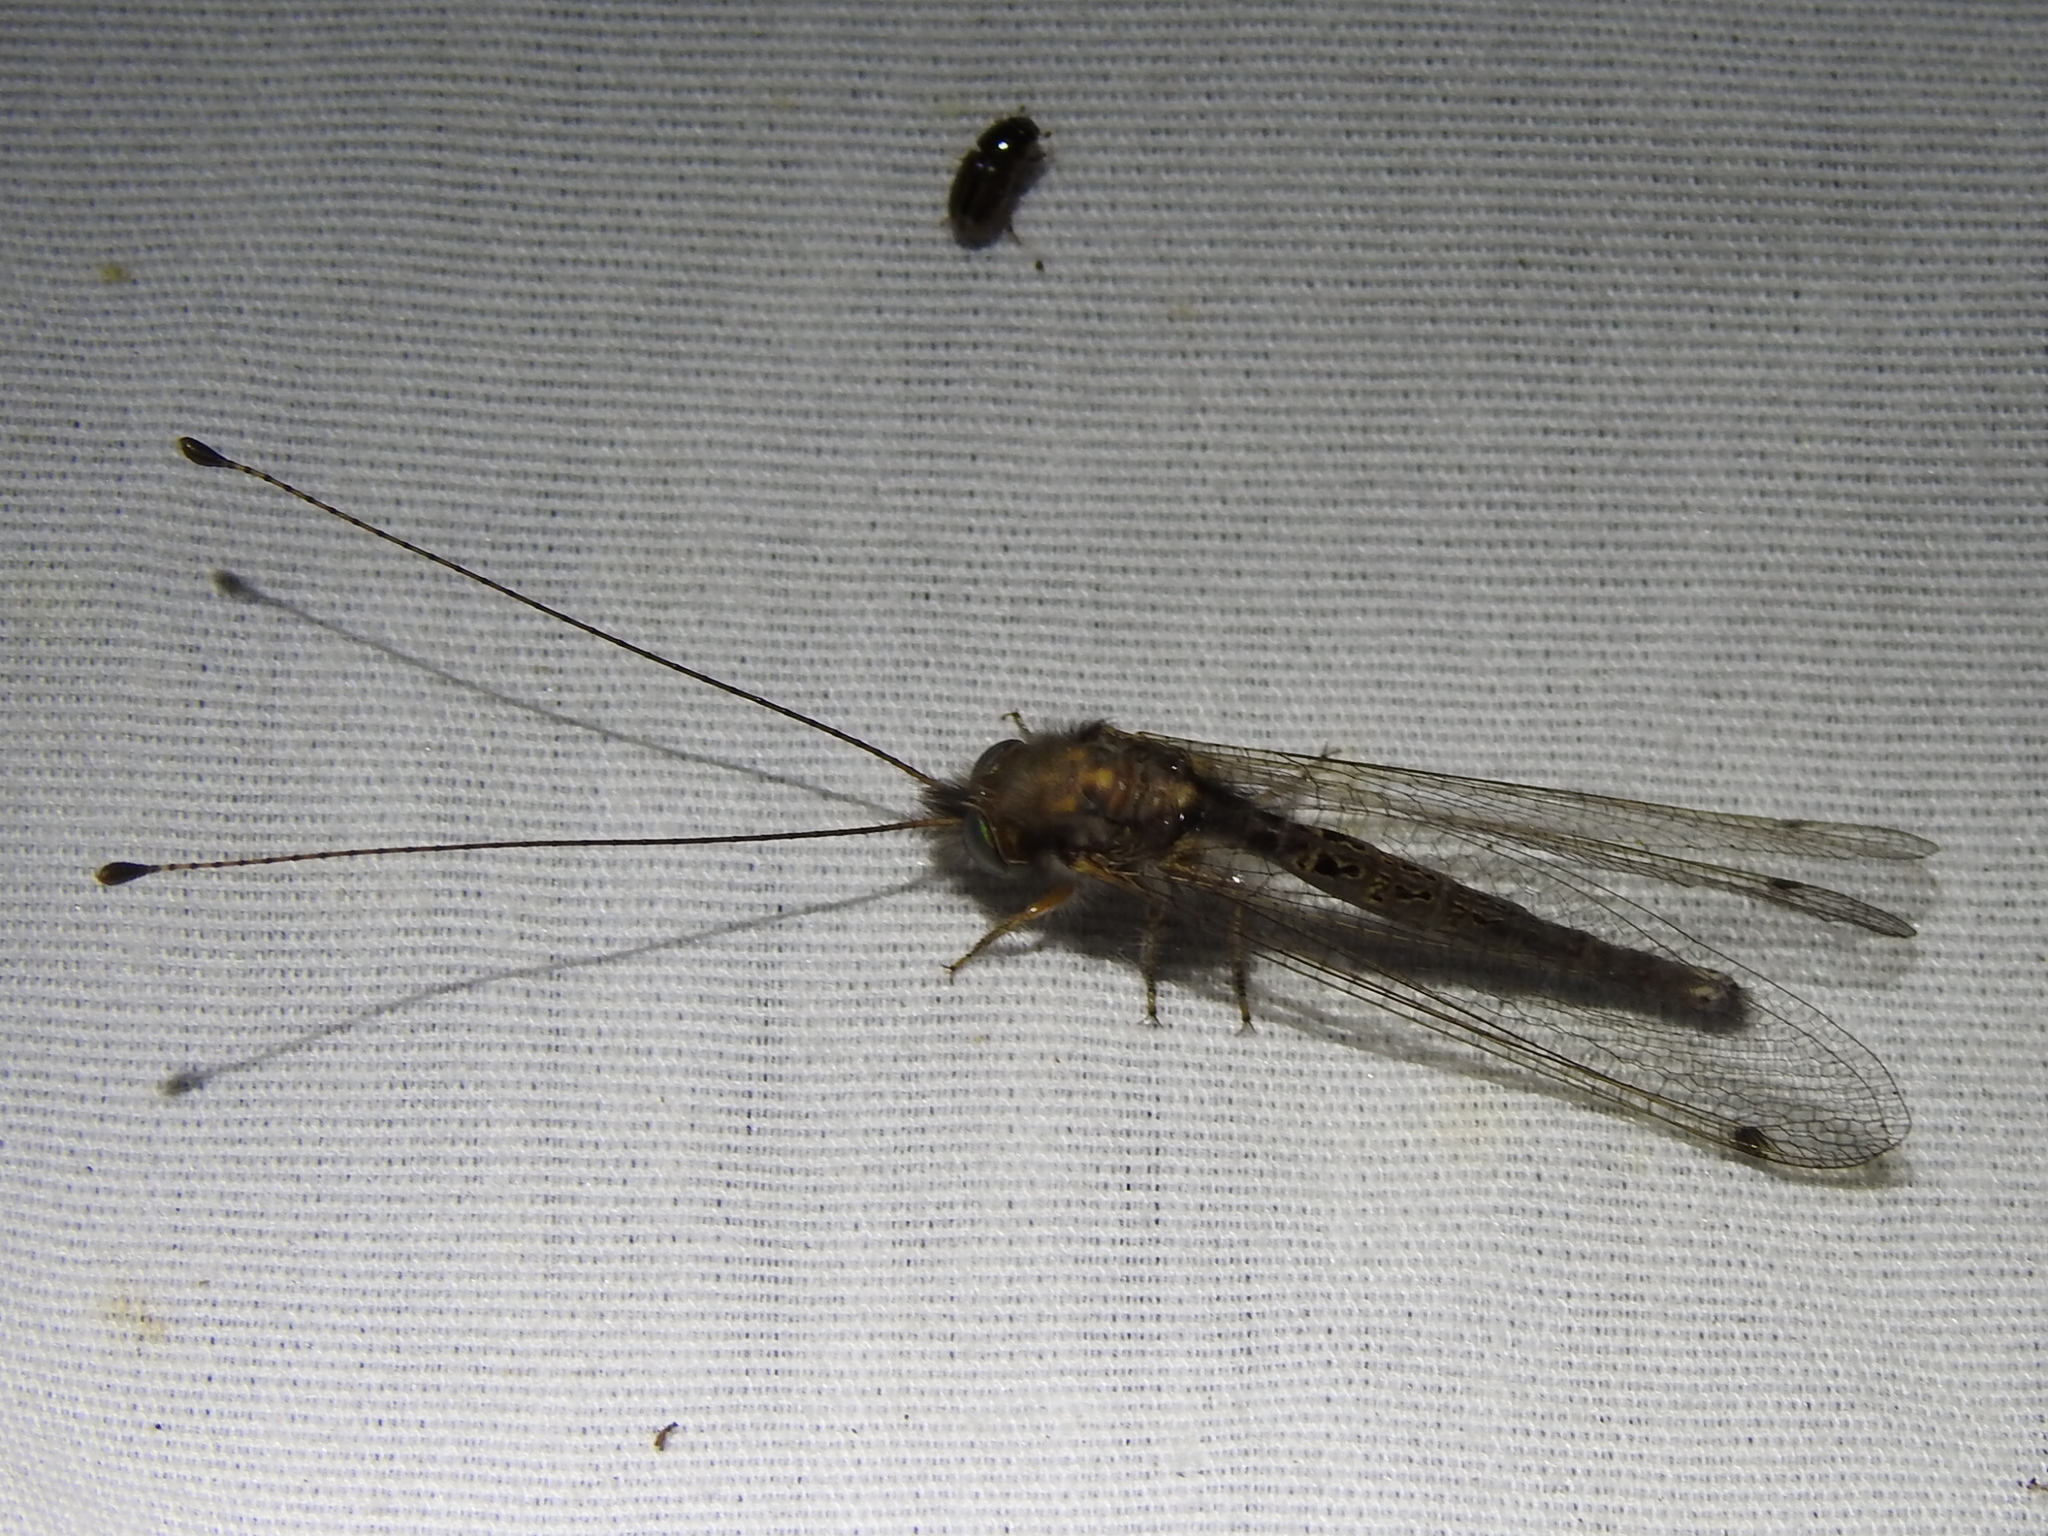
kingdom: Animalia
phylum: Arthropoda
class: Insecta
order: Neuroptera
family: Ascalaphidae
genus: Ululodes
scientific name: Ululodes macleayanus
